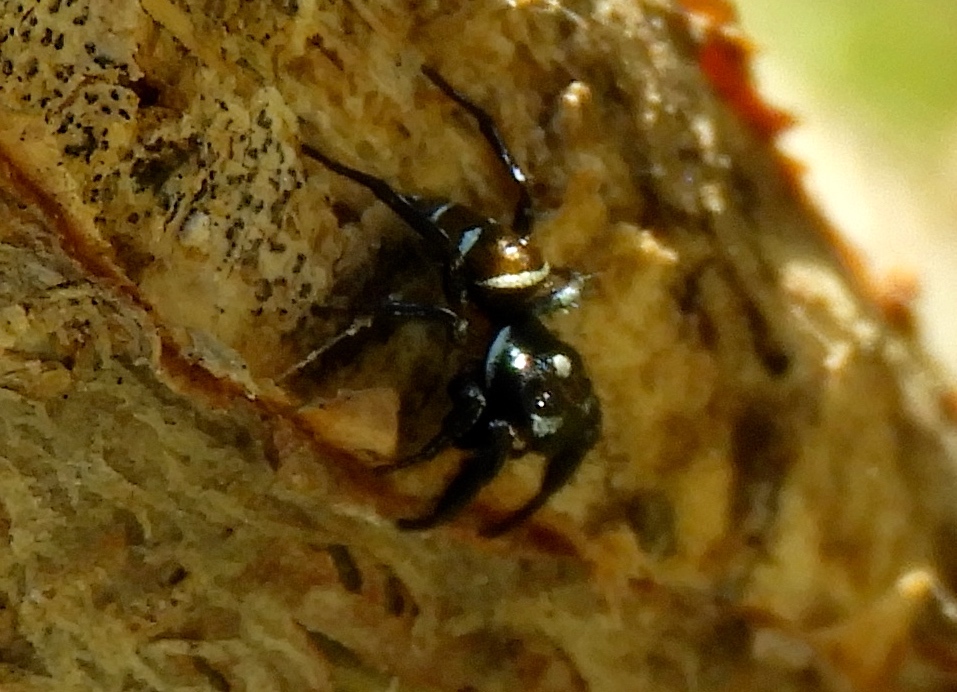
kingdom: Animalia
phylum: Arthropoda
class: Arachnida
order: Araneae
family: Salticidae
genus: Sassacus
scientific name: Sassacus
